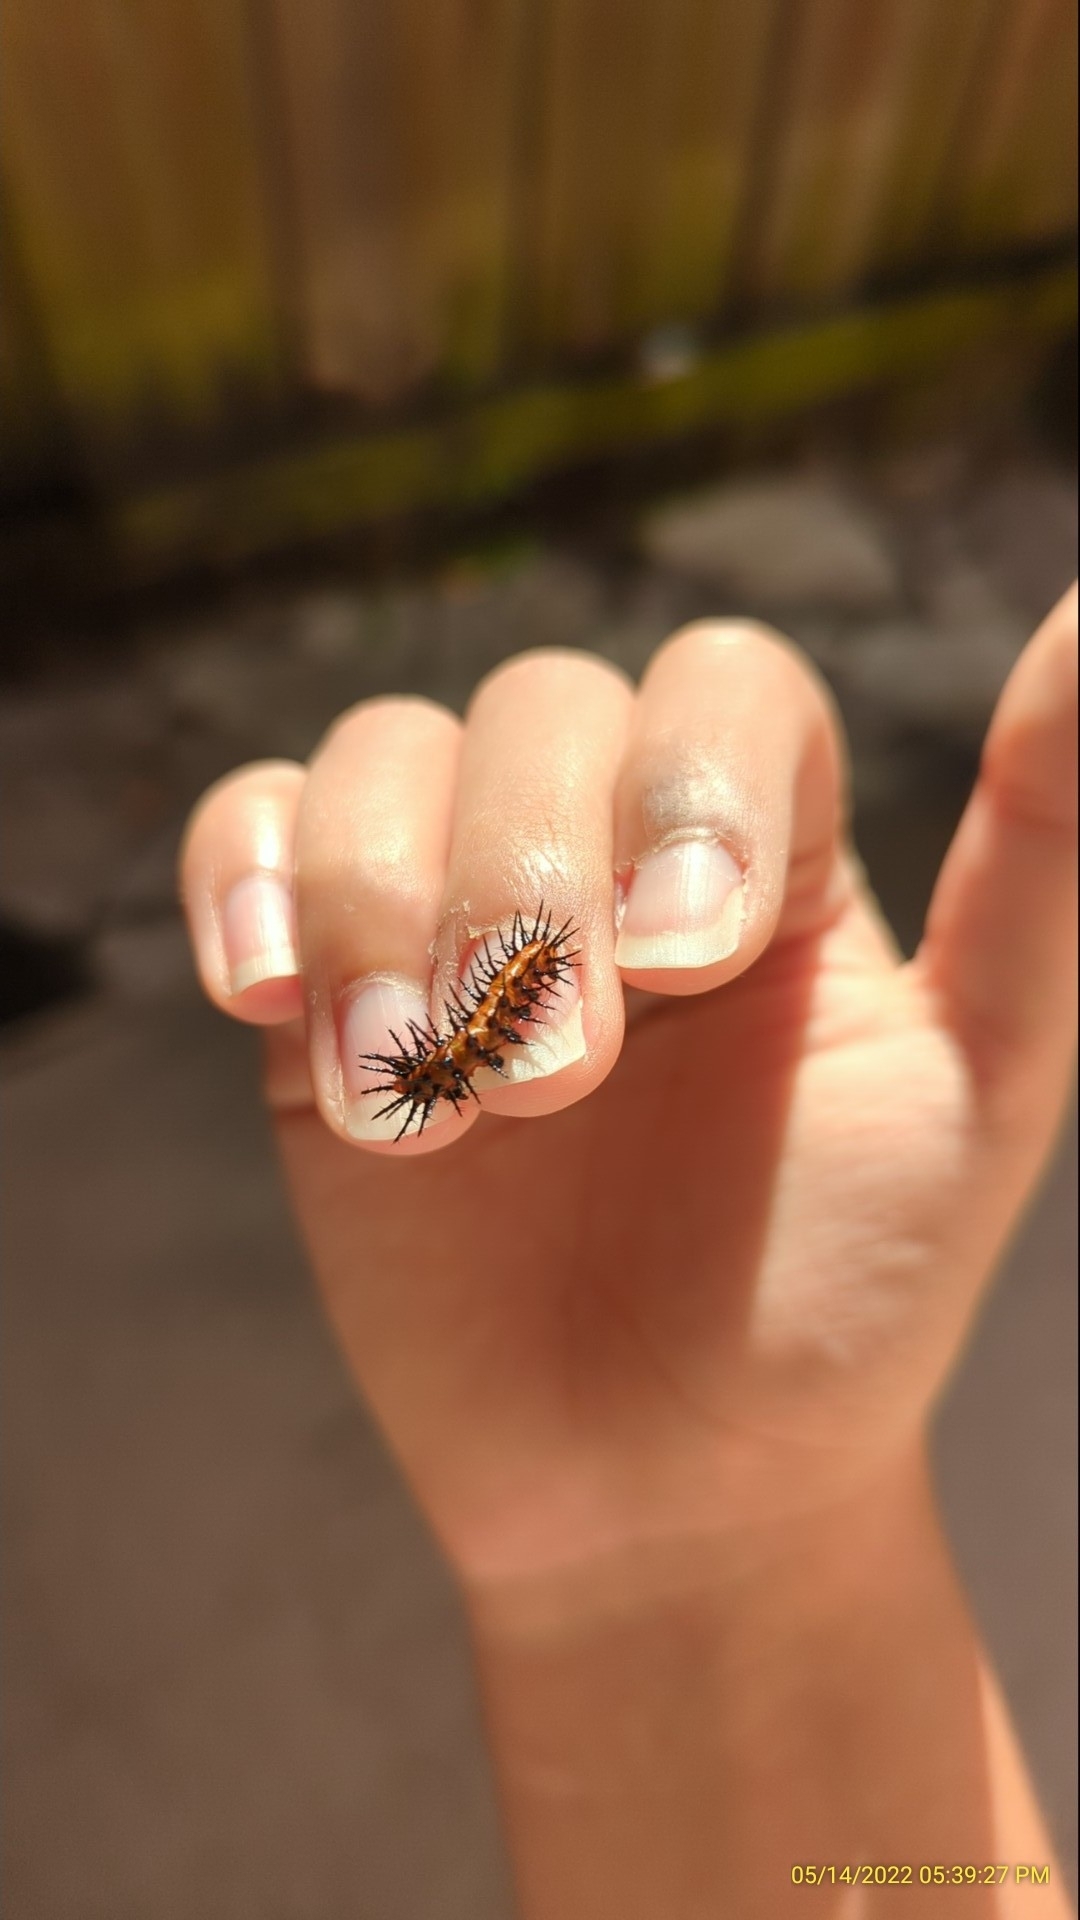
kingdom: Animalia
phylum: Arthropoda
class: Insecta
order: Lepidoptera
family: Nymphalidae
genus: Dione
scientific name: Dione vanillae
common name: Gulf fritillary
